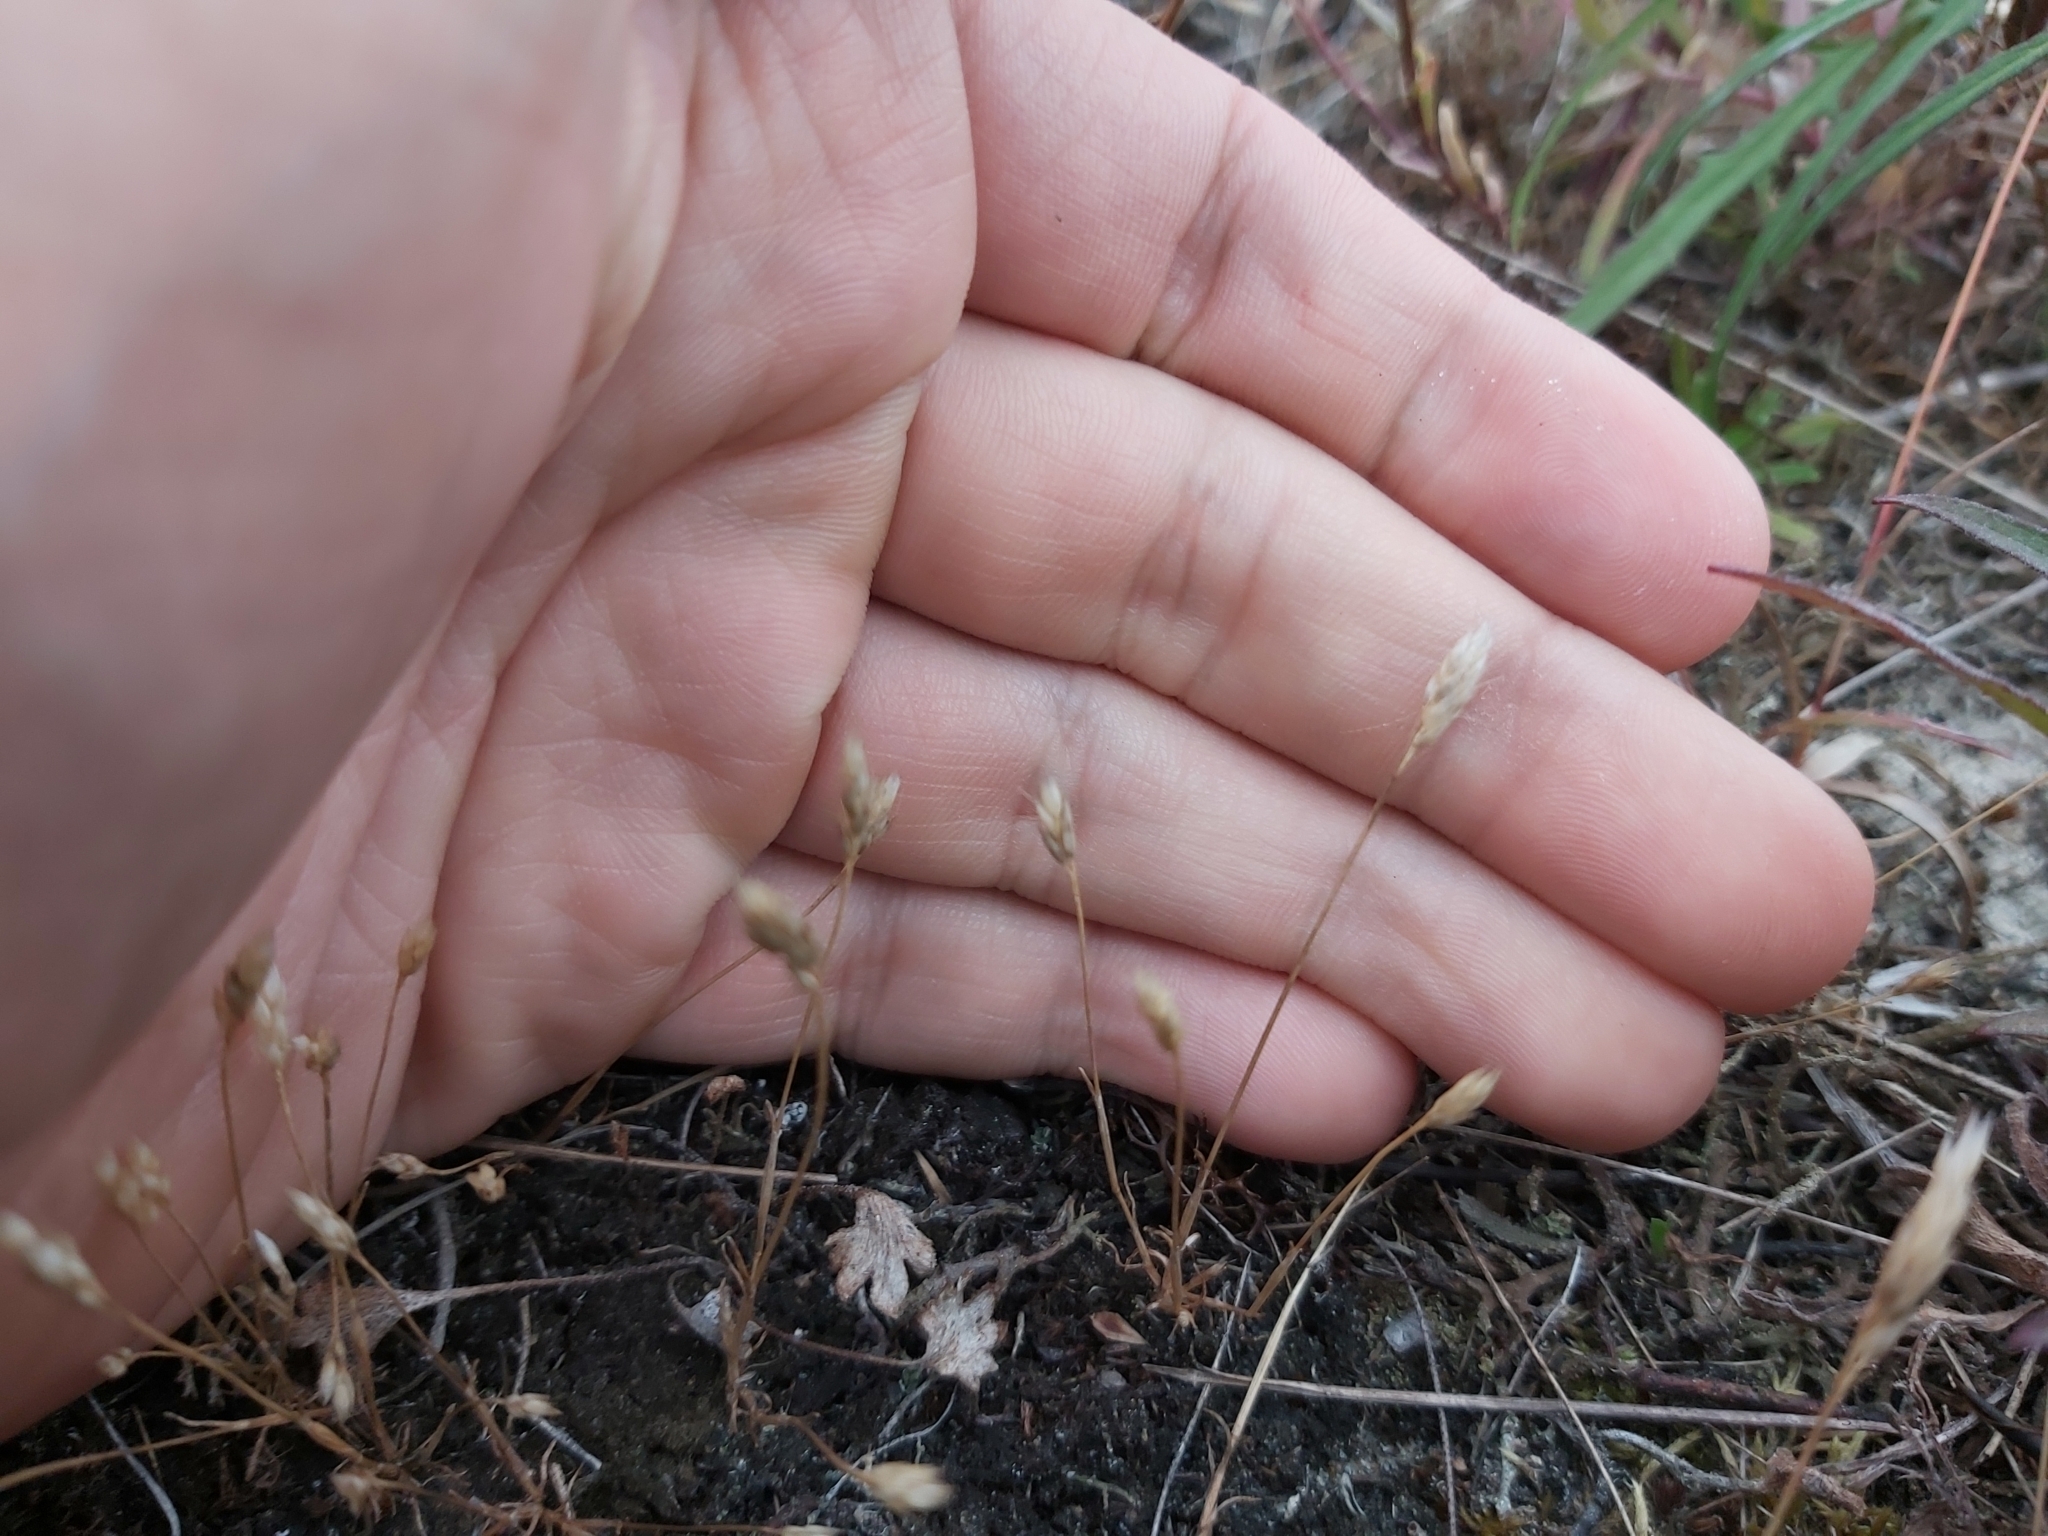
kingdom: Plantae
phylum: Tracheophyta
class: Liliopsida
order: Poales
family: Poaceae
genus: Aira
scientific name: Aira praecox
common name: Early hair-grass
